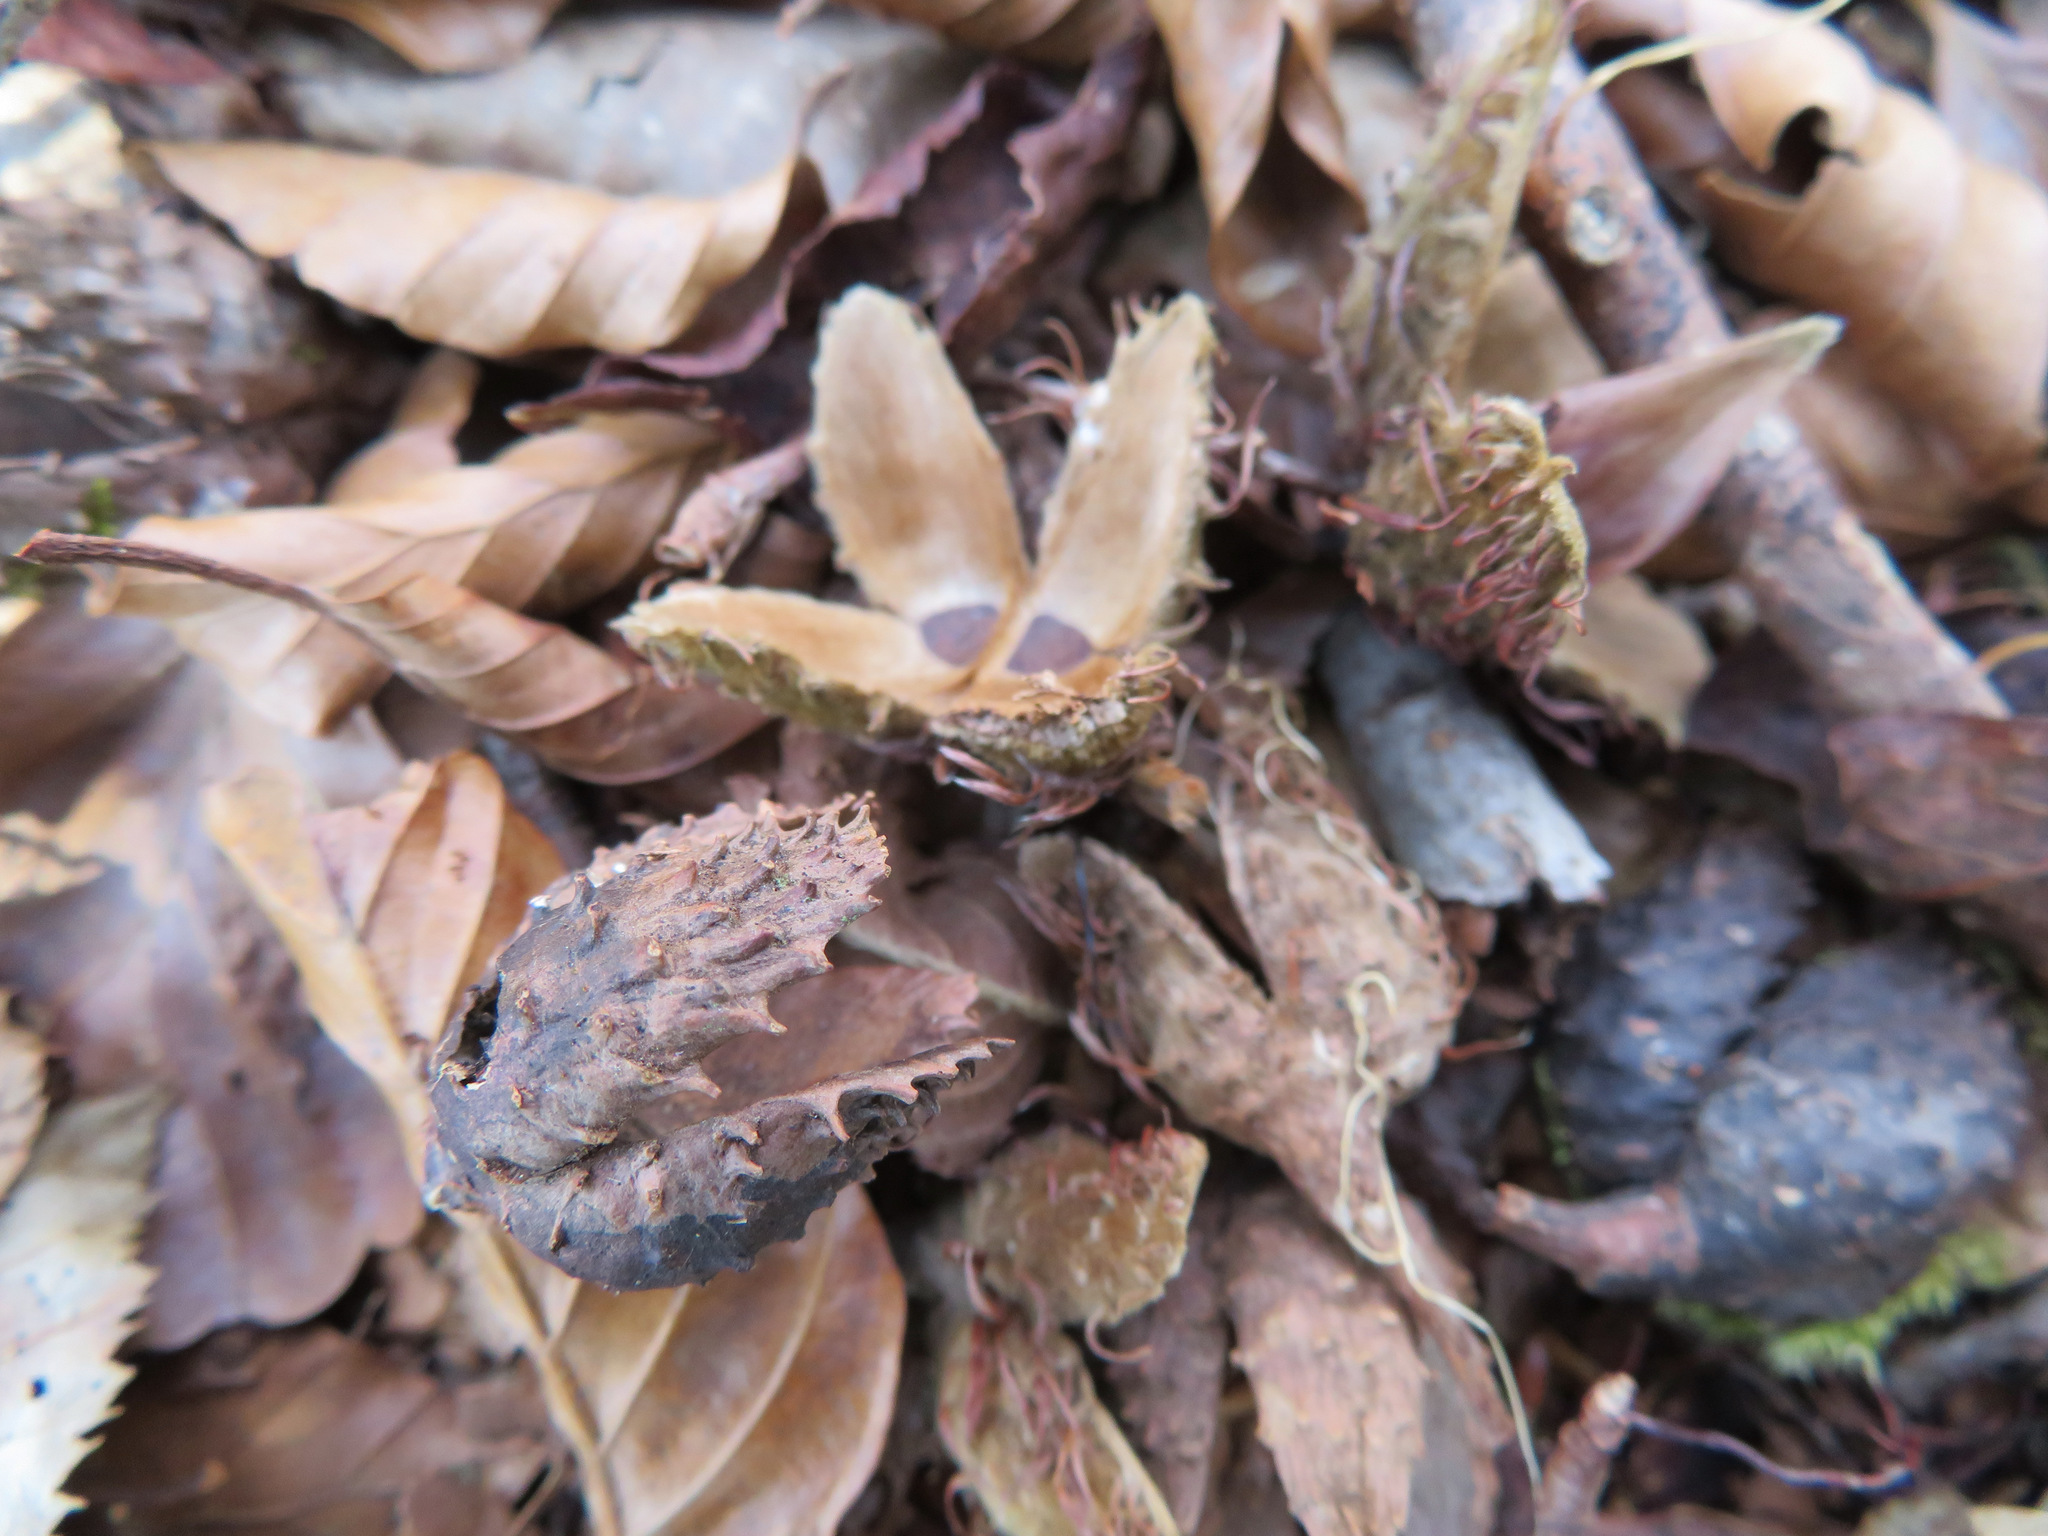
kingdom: Plantae
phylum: Tracheophyta
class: Magnoliopsida
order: Fagales
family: Fagaceae
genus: Fagus
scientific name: Fagus crenata
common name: Japanese beech
